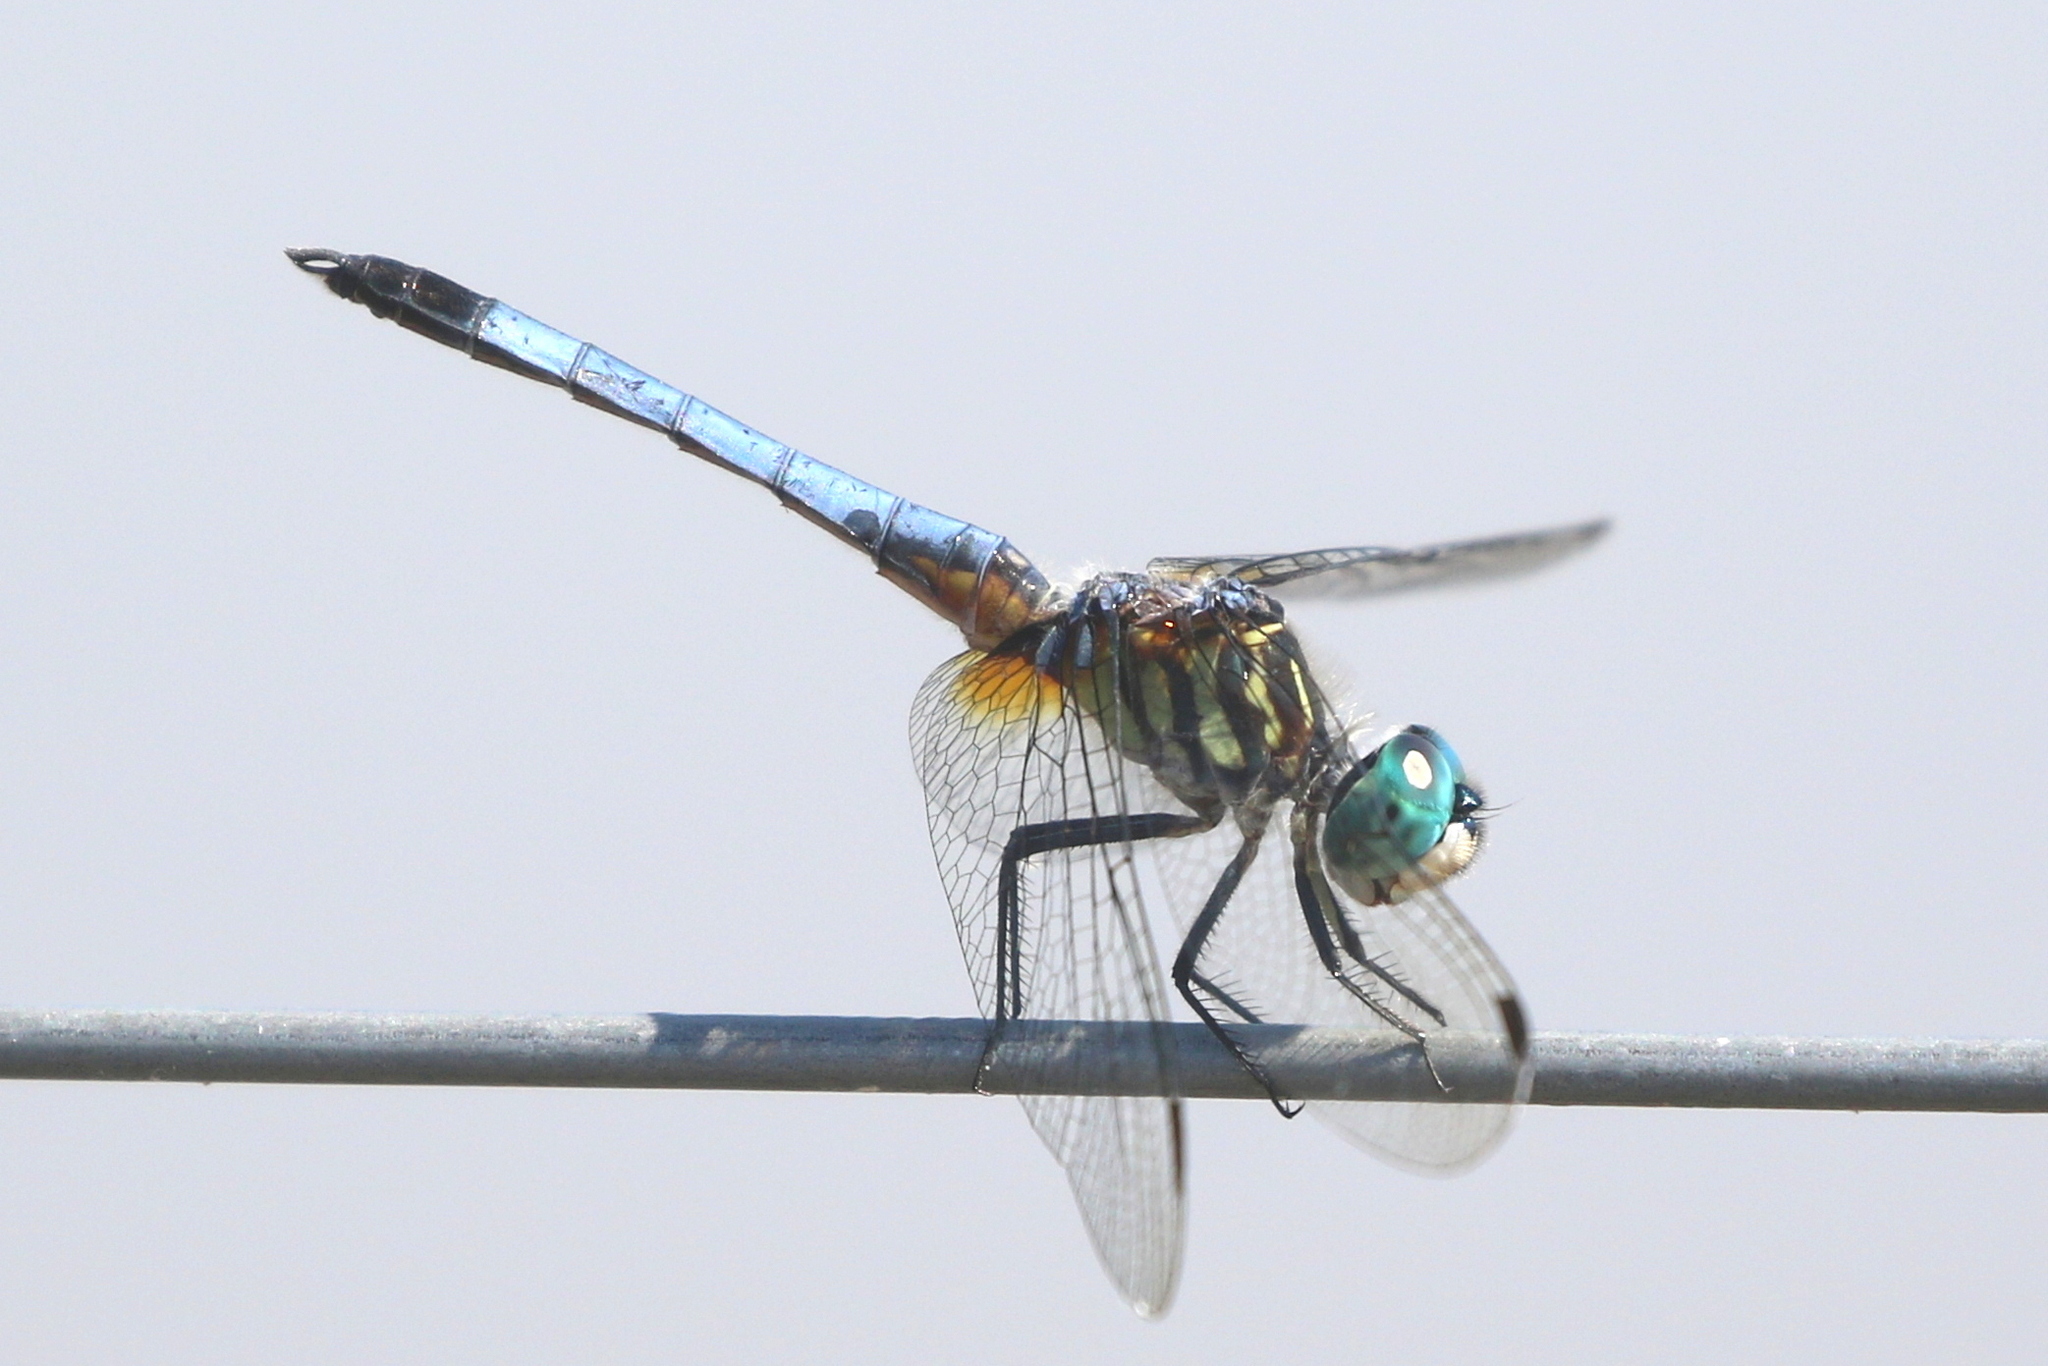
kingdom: Animalia
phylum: Arthropoda
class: Insecta
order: Odonata
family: Libellulidae
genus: Pachydiplax
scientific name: Pachydiplax longipennis
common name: Blue dasher
